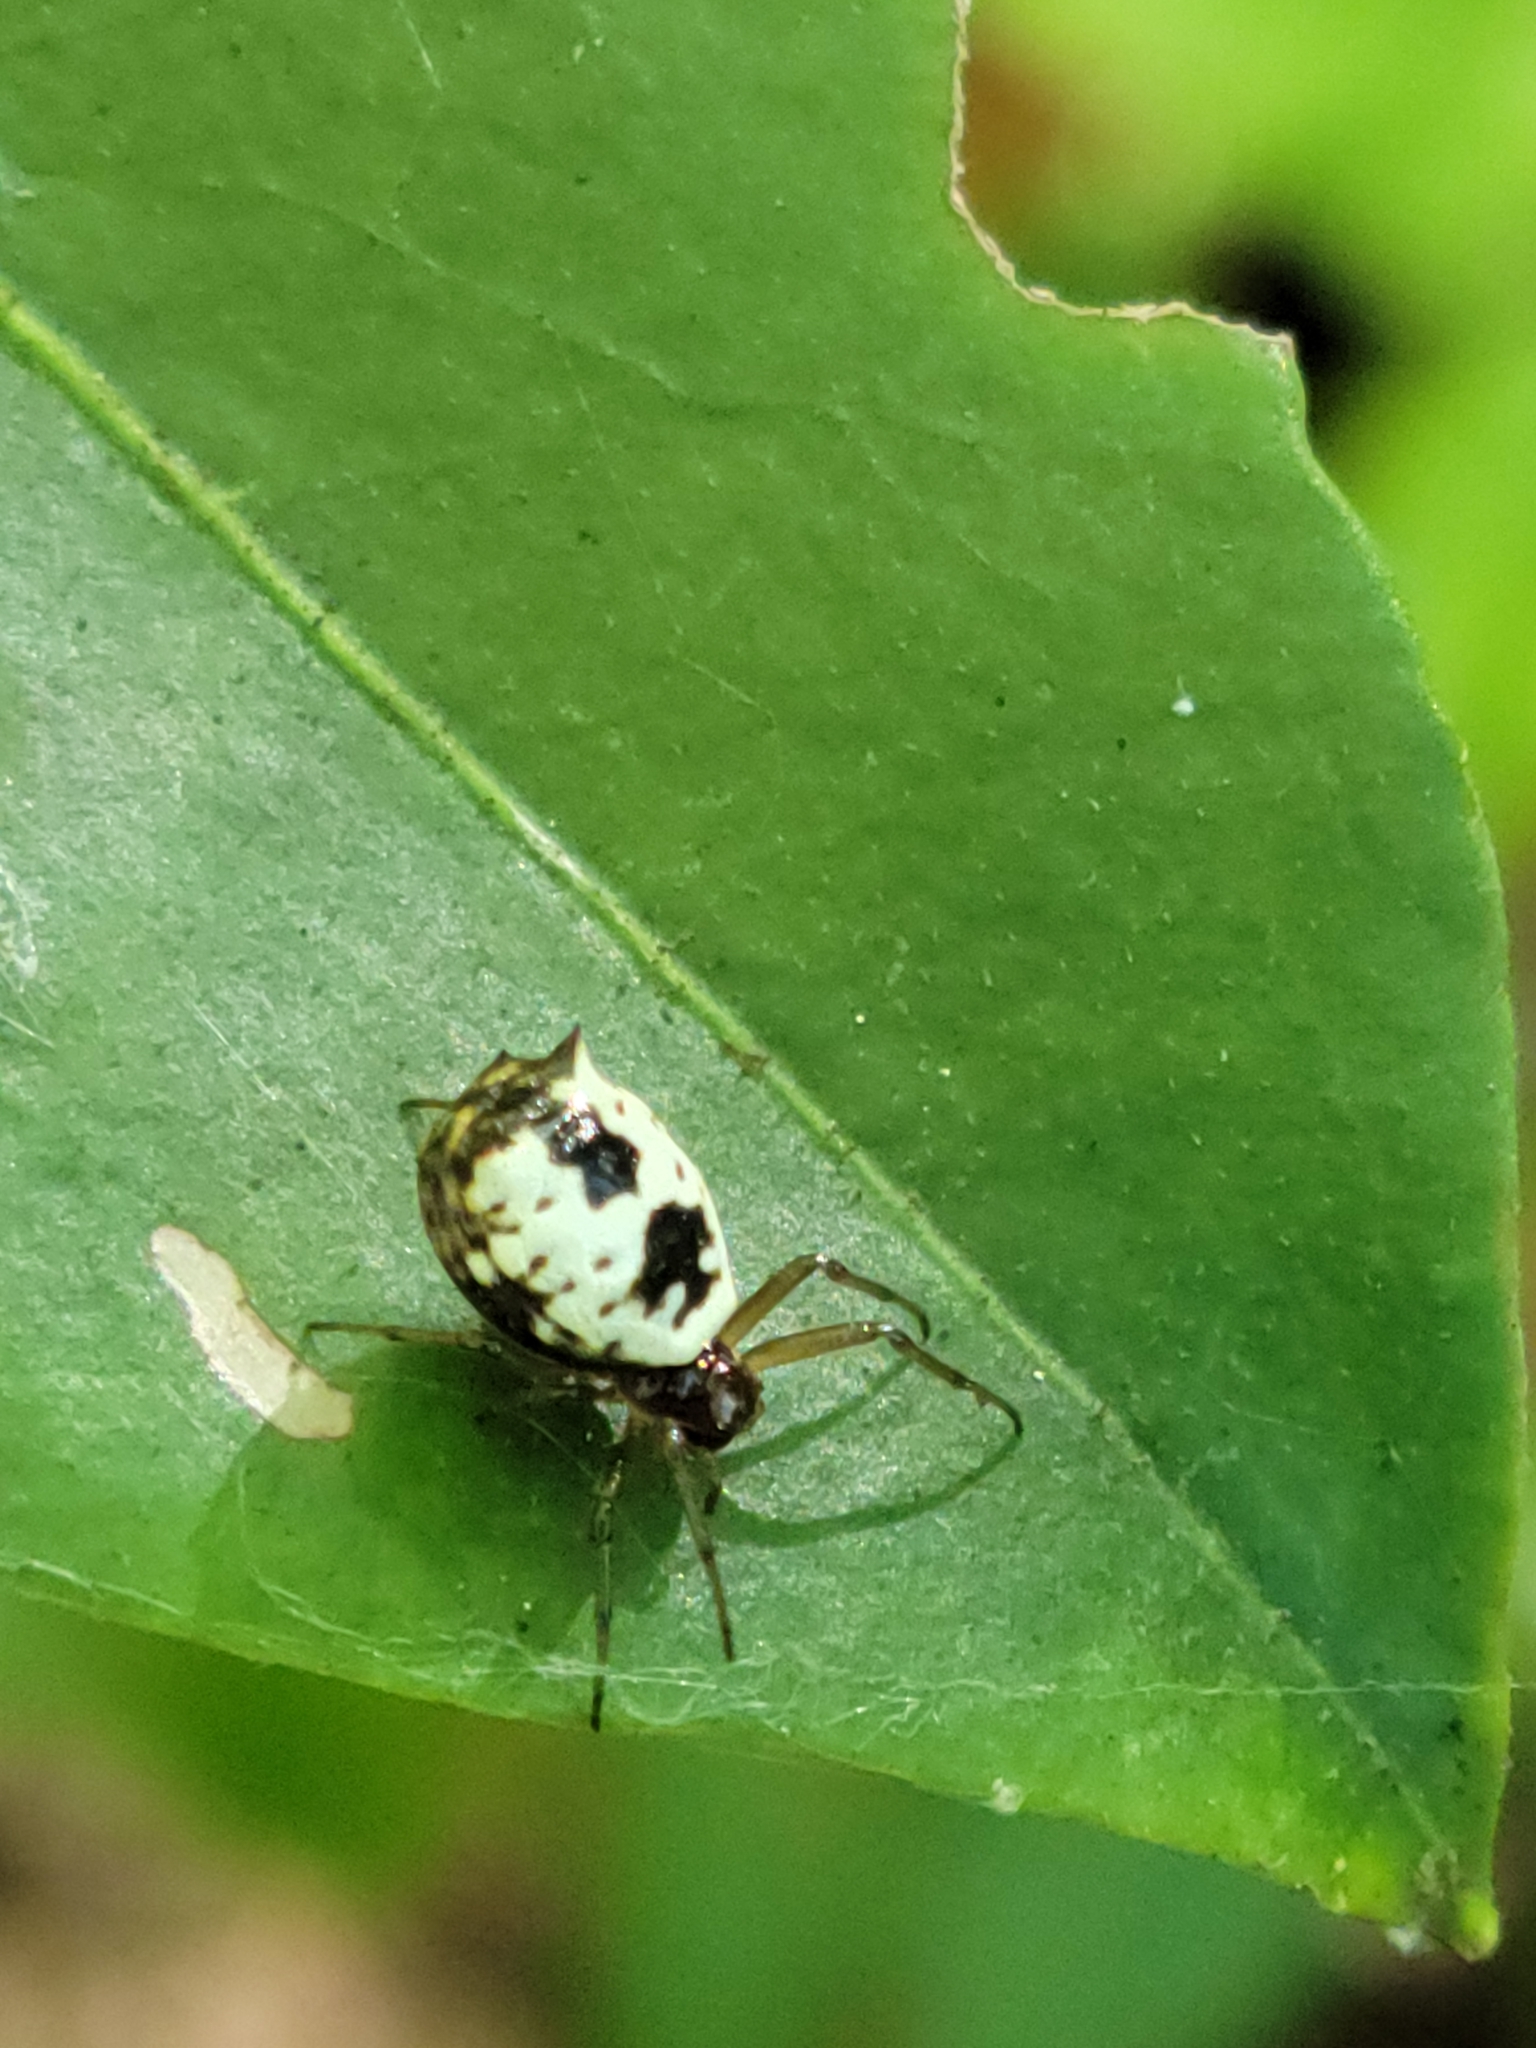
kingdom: Animalia
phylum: Arthropoda
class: Arachnida
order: Araneae
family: Araneidae
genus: Micrathena
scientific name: Micrathena mitrata
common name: Orb weavers
